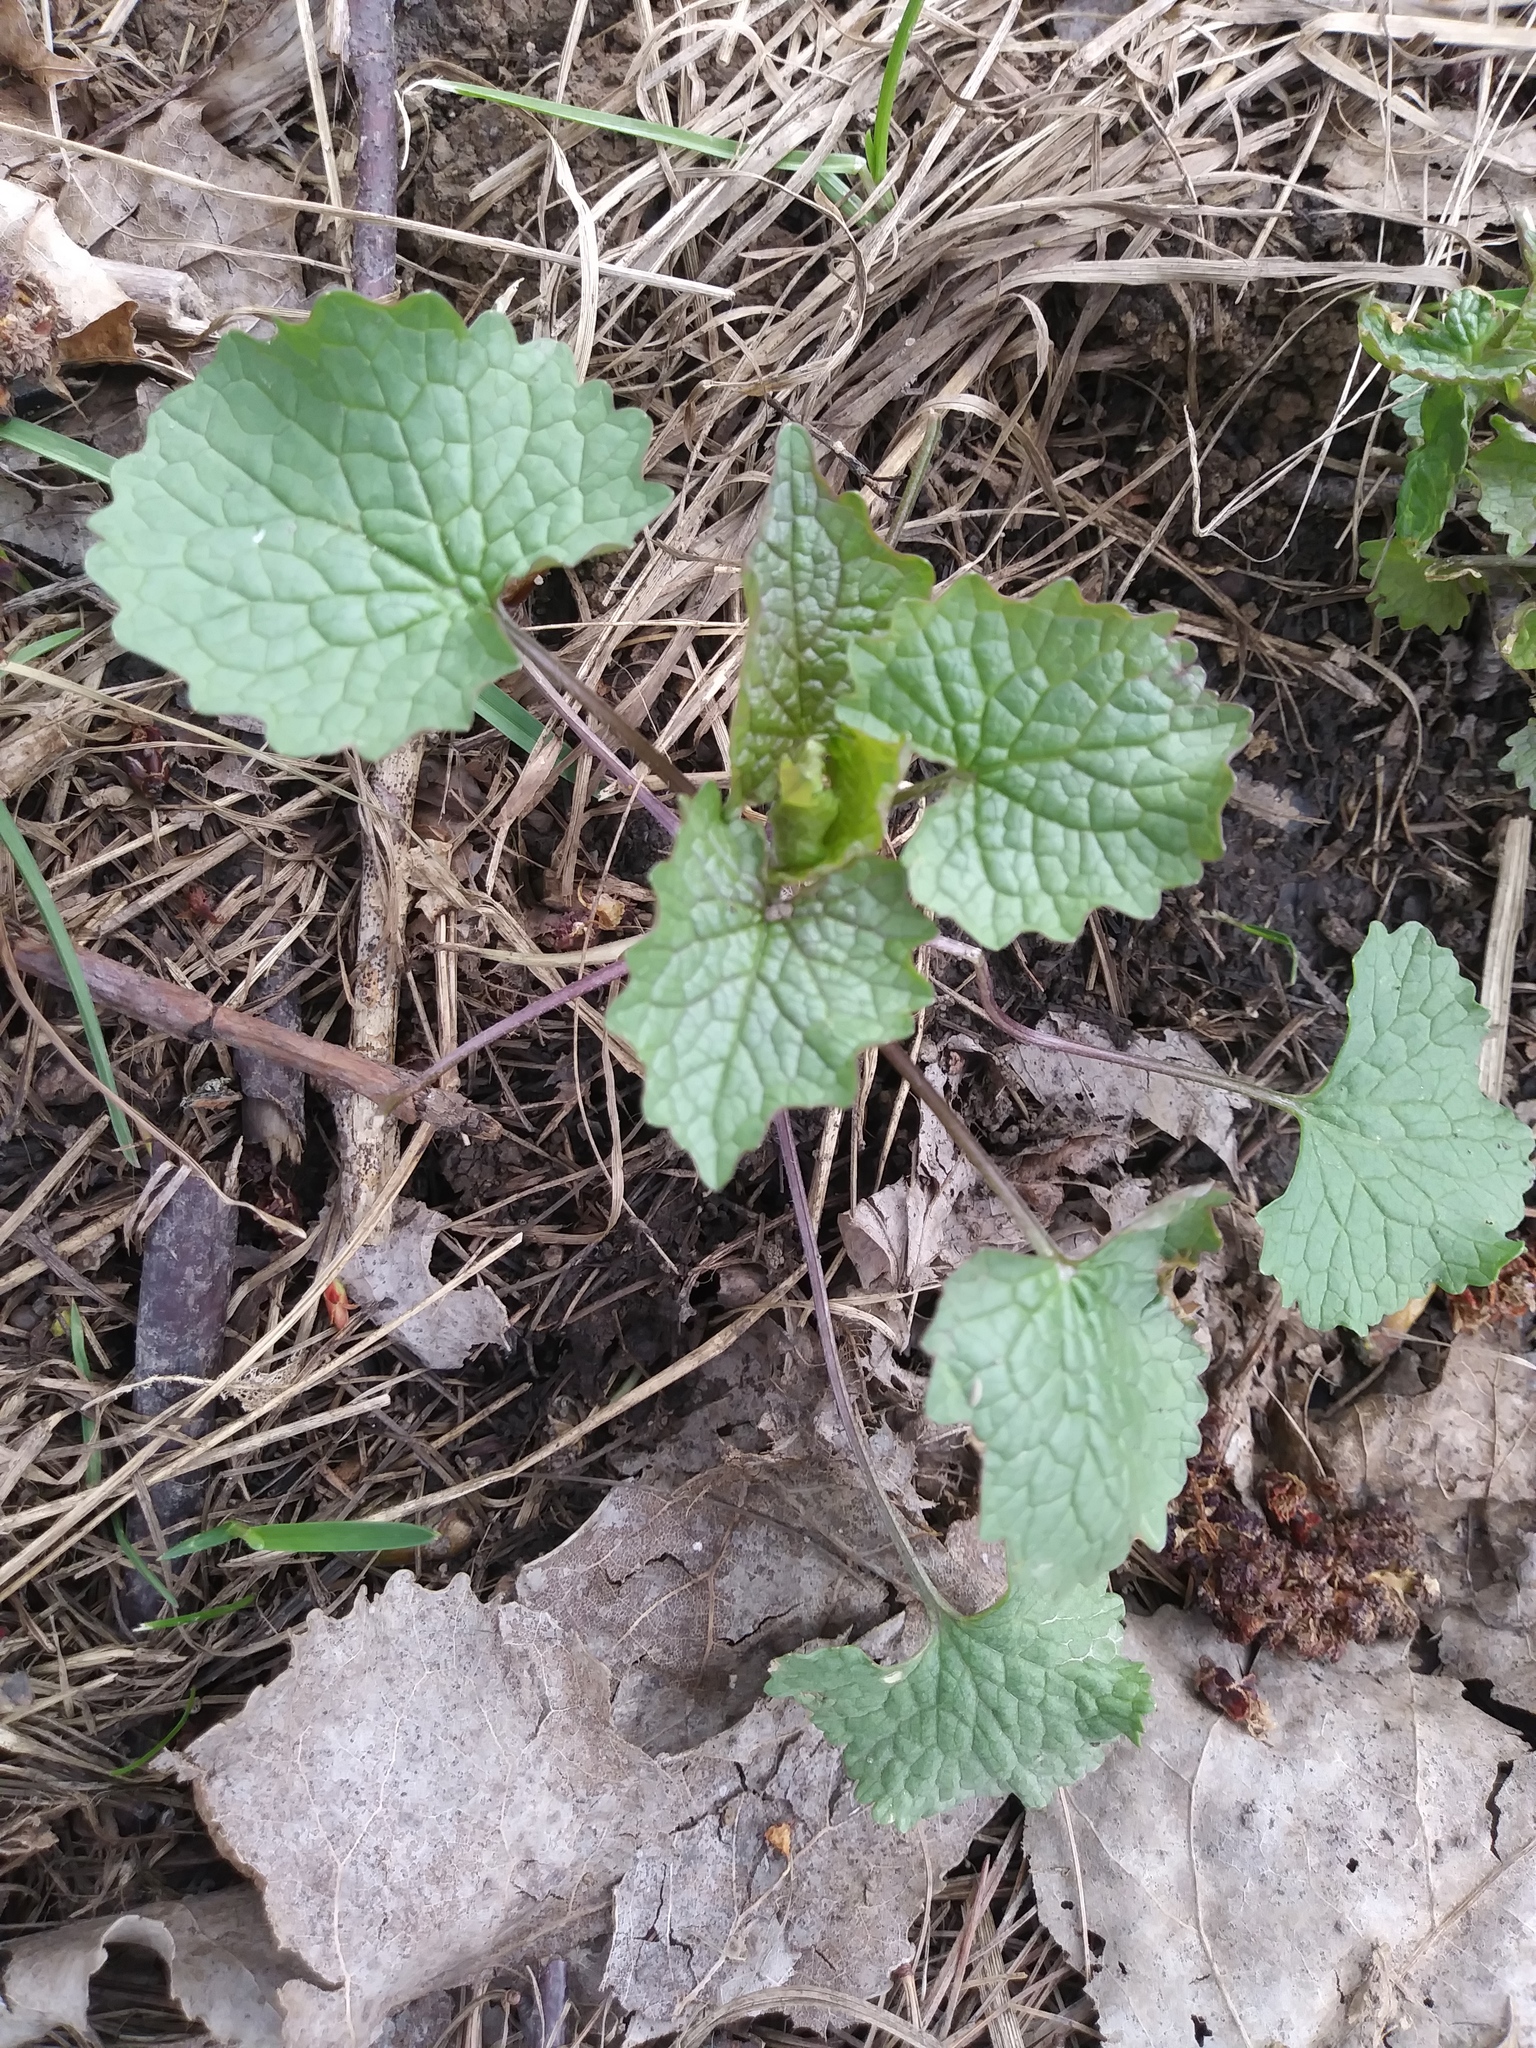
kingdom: Plantae
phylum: Tracheophyta
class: Magnoliopsida
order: Brassicales
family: Brassicaceae
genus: Alliaria
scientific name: Alliaria petiolata
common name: Garlic mustard
